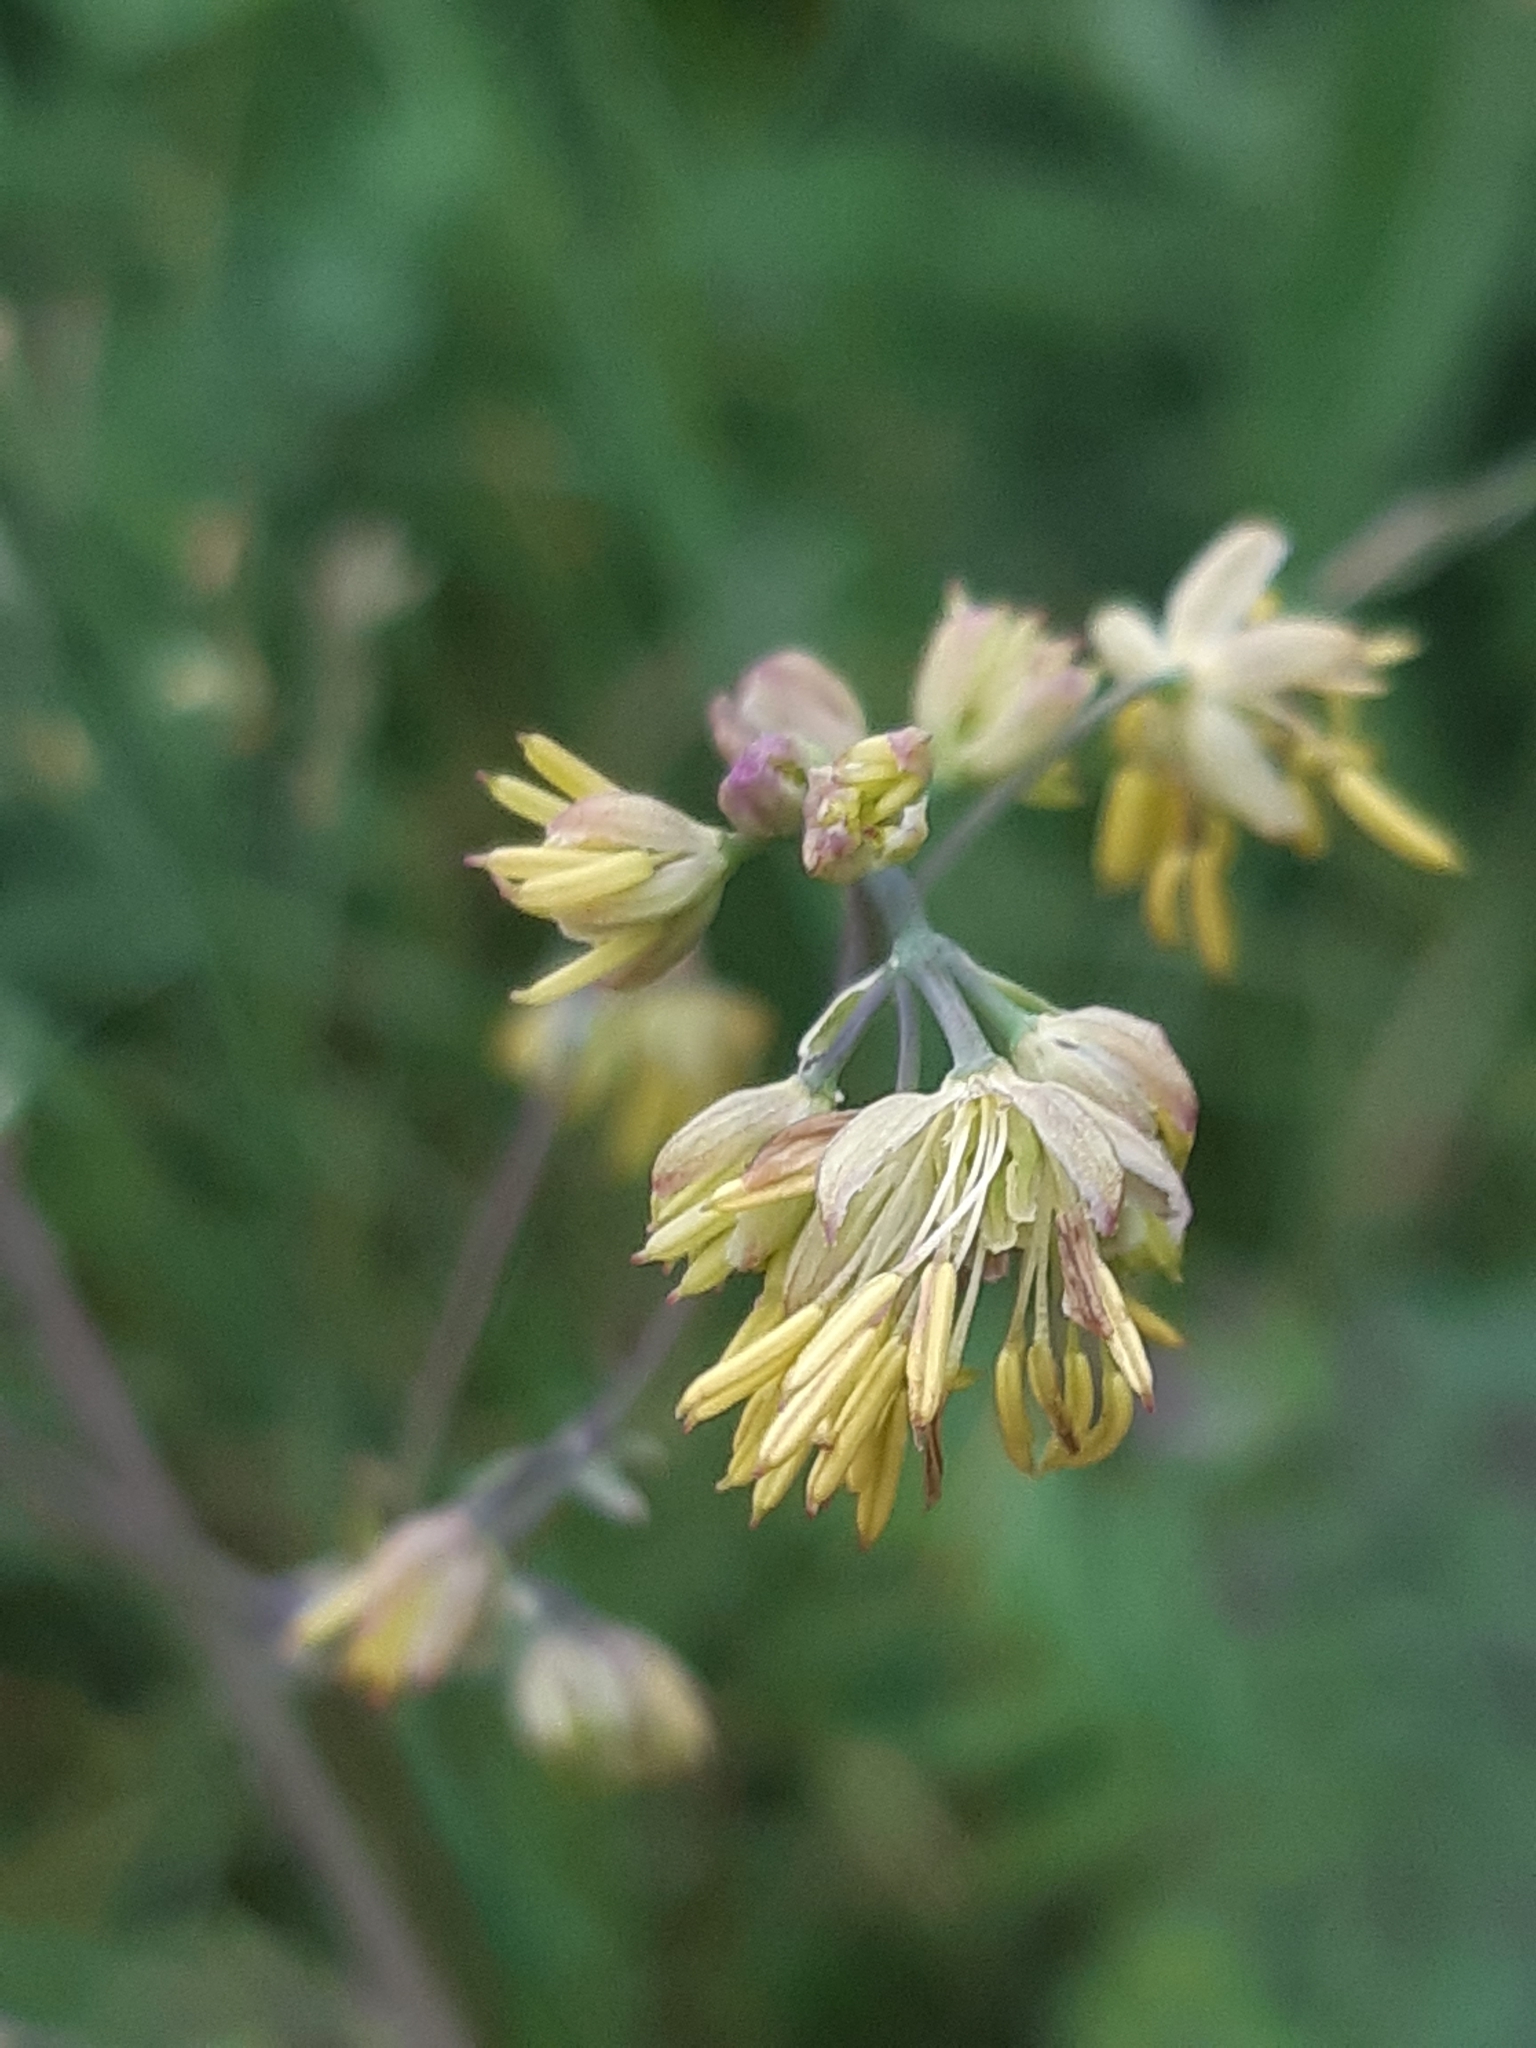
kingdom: Plantae
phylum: Tracheophyta
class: Magnoliopsida
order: Ranunculales
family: Ranunculaceae
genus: Thalictrum
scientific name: Thalictrum minus
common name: Lesser meadow-rue
